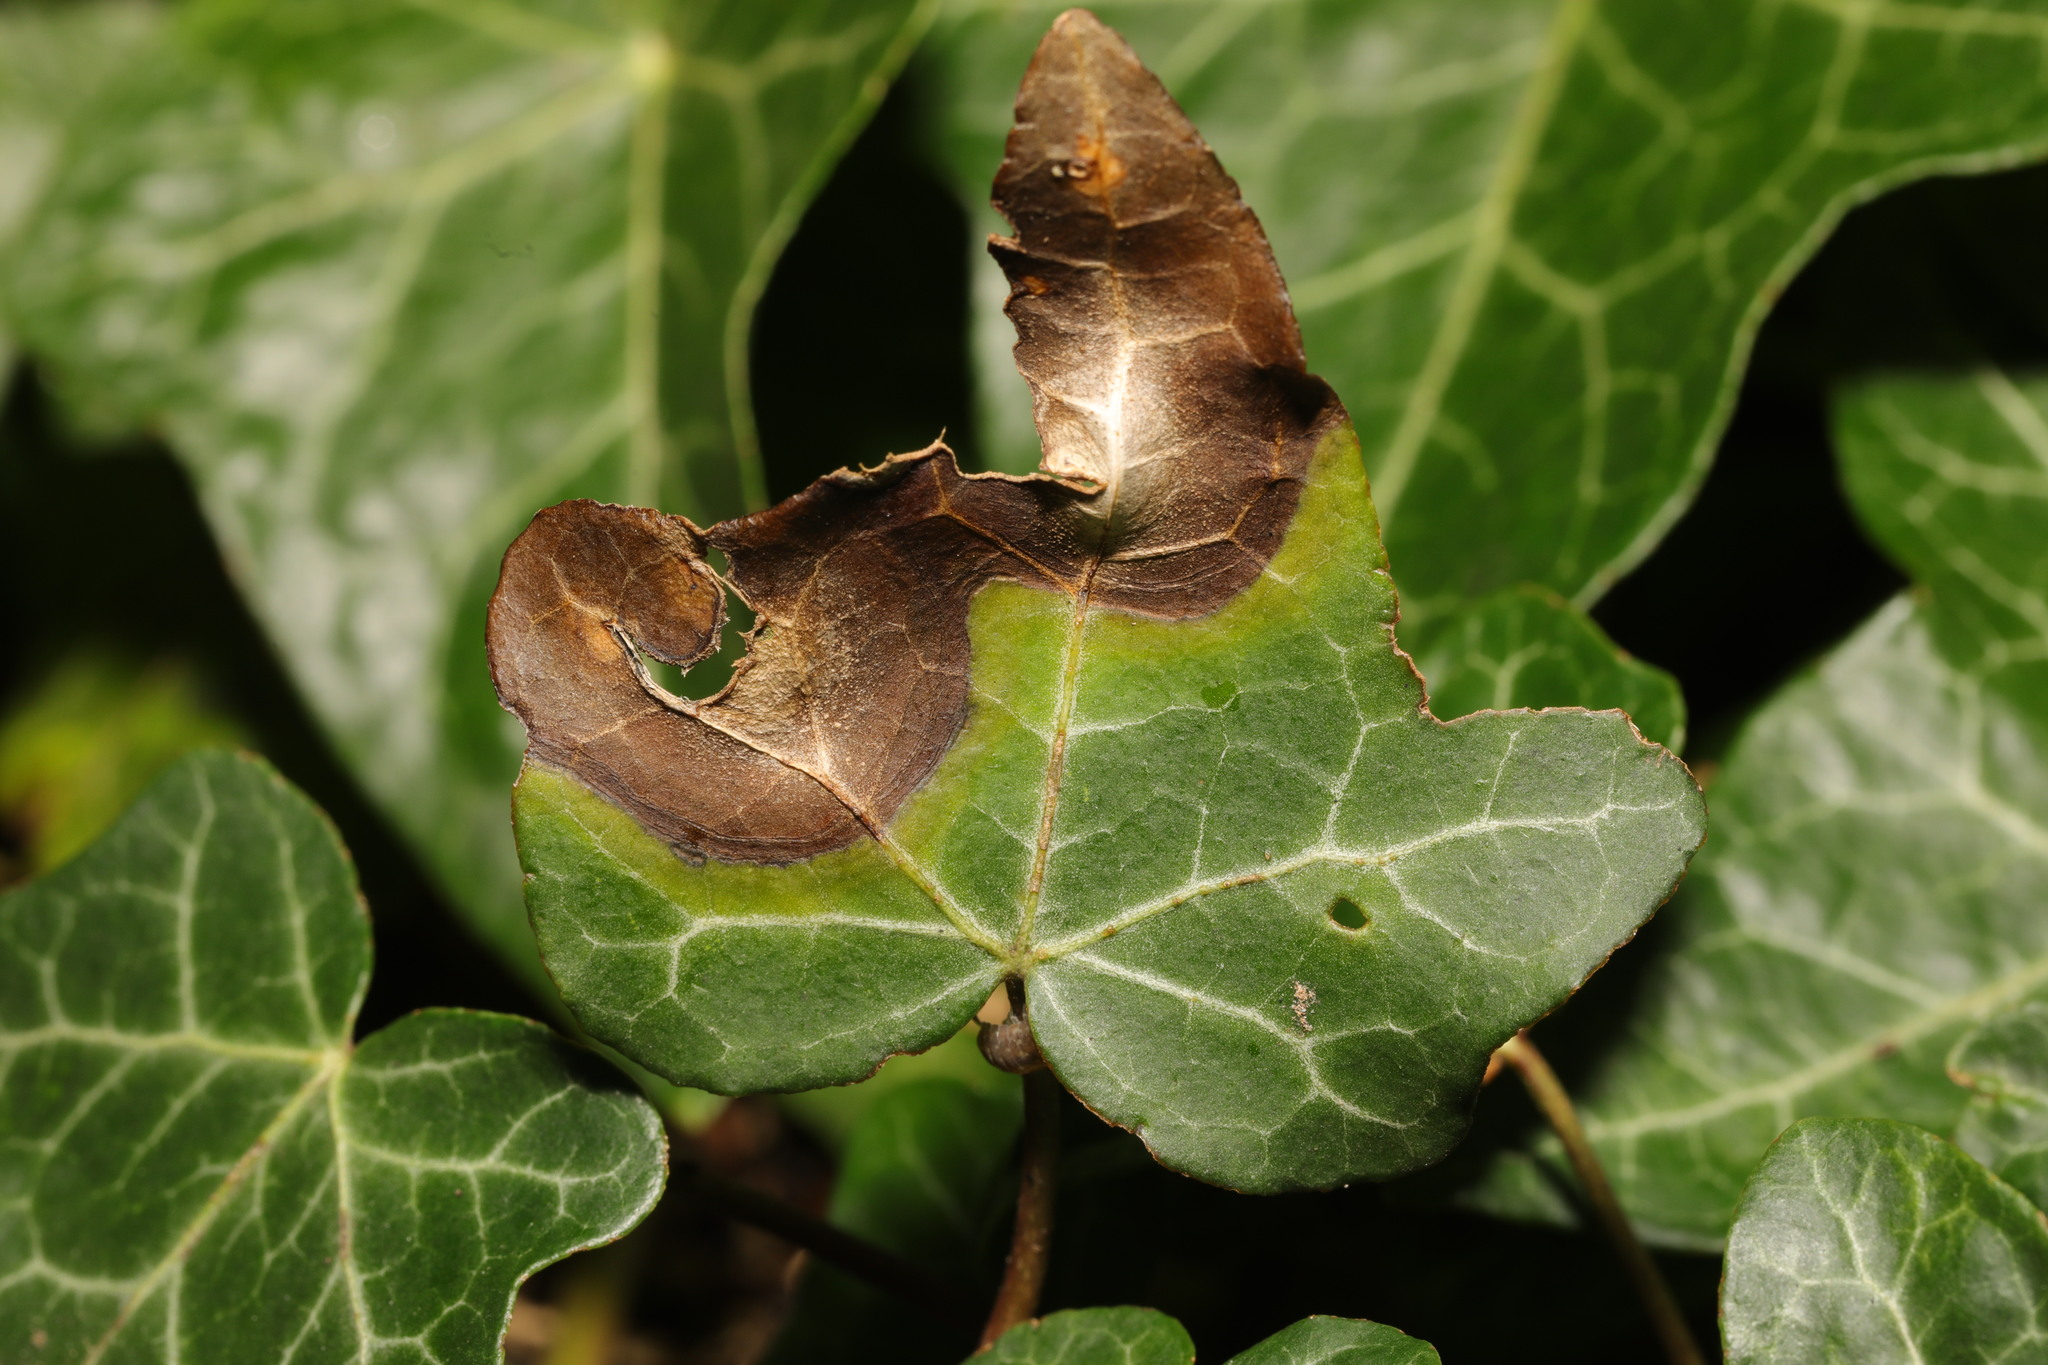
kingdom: Plantae
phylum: Tracheophyta
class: Magnoliopsida
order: Apiales
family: Araliaceae
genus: Hedera
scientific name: Hedera helix
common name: Ivy
